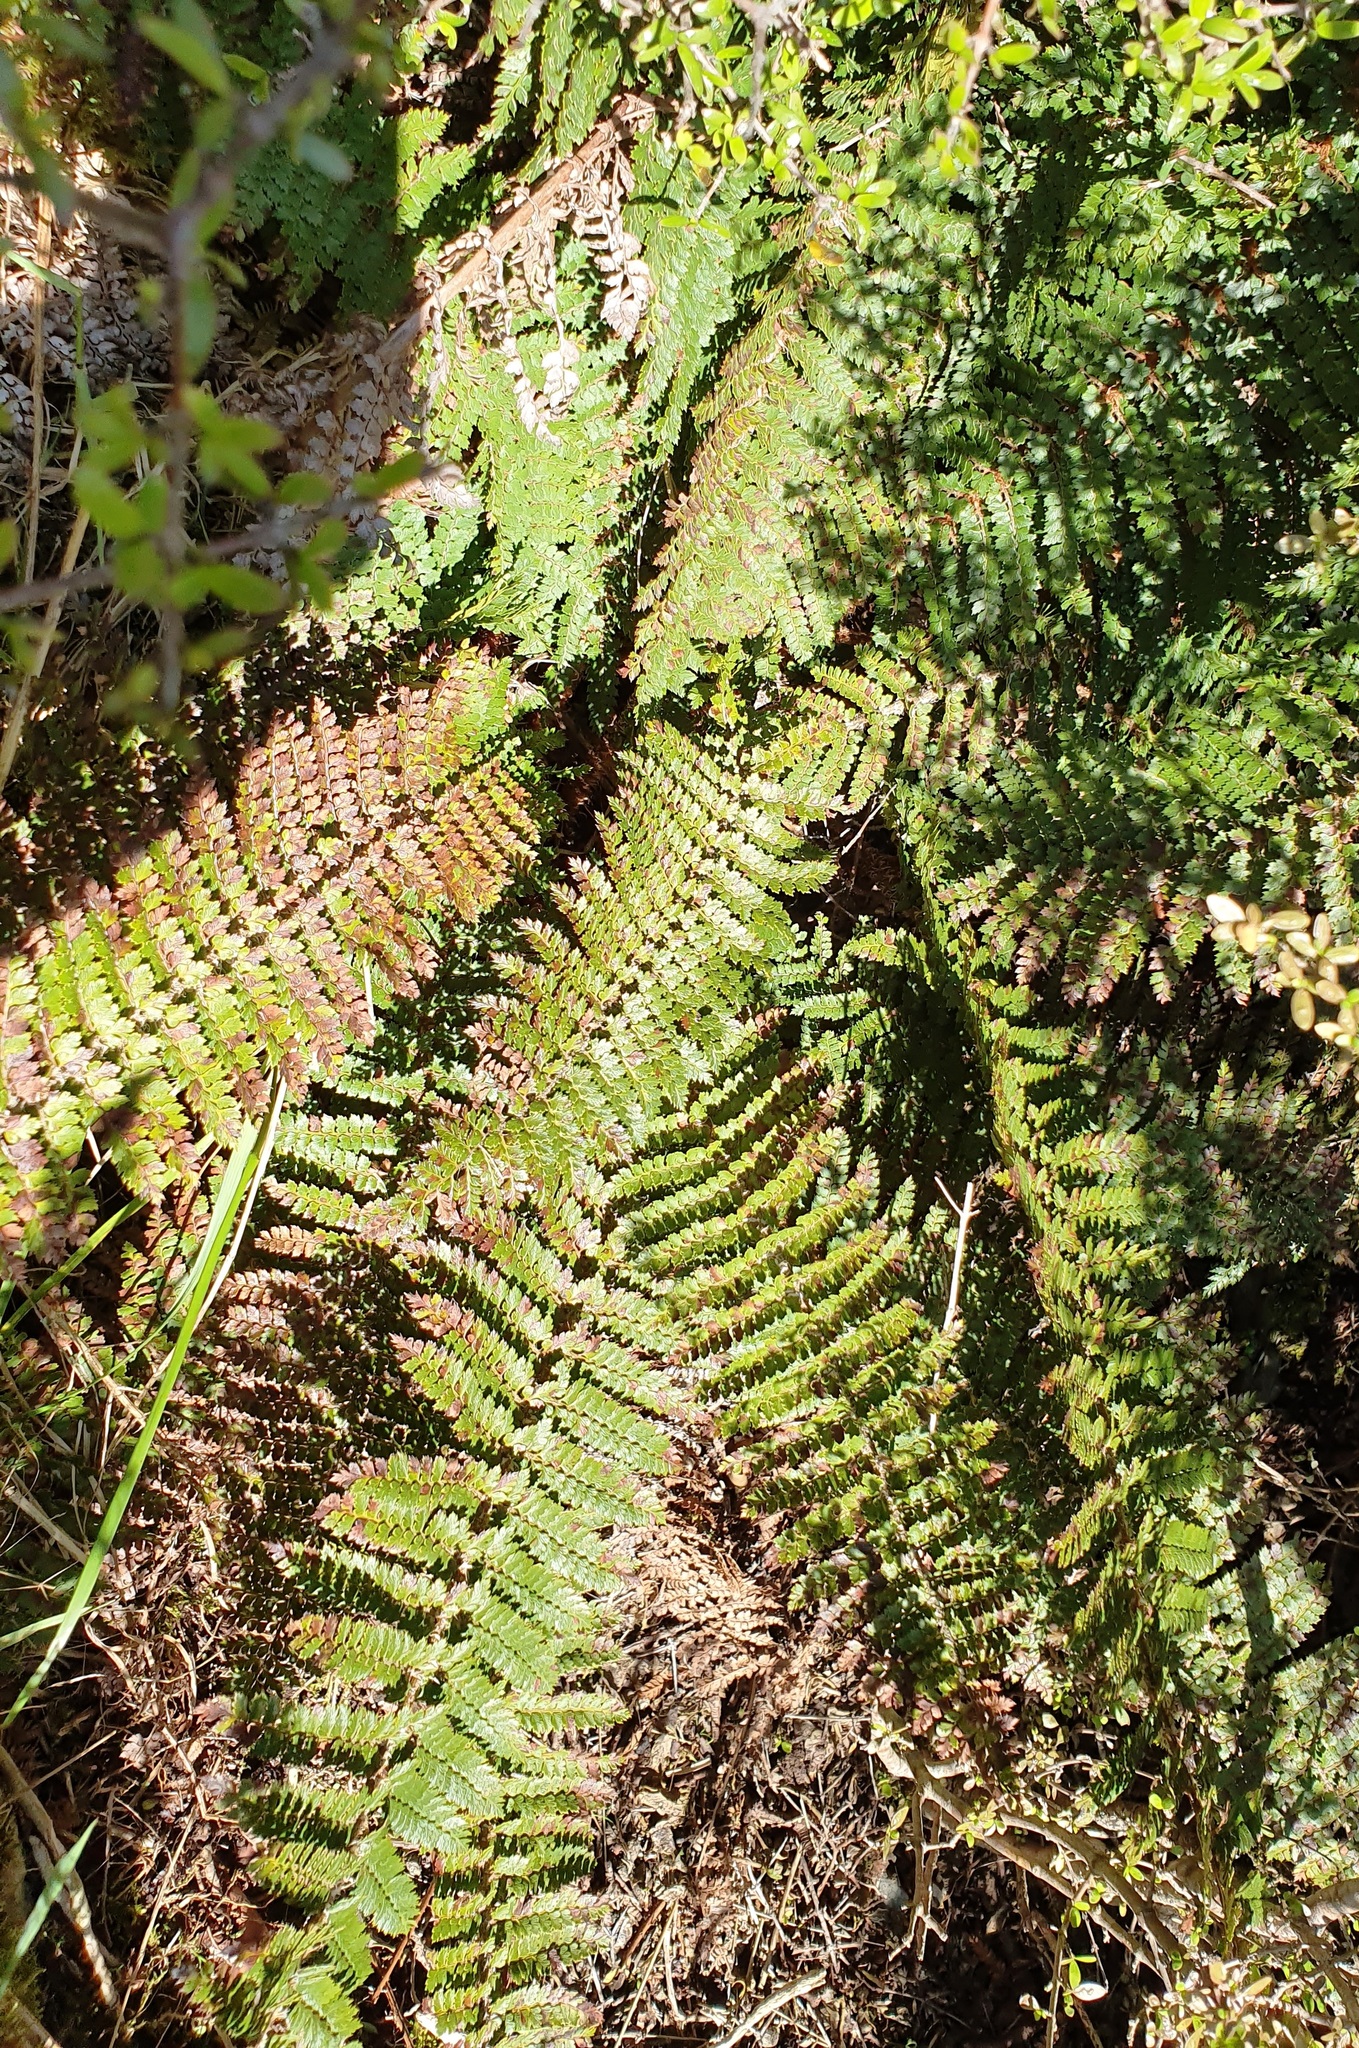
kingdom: Plantae
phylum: Tracheophyta
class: Polypodiopsida
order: Polypodiales
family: Dryopteridaceae
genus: Polystichum
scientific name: Polystichum vestitum
